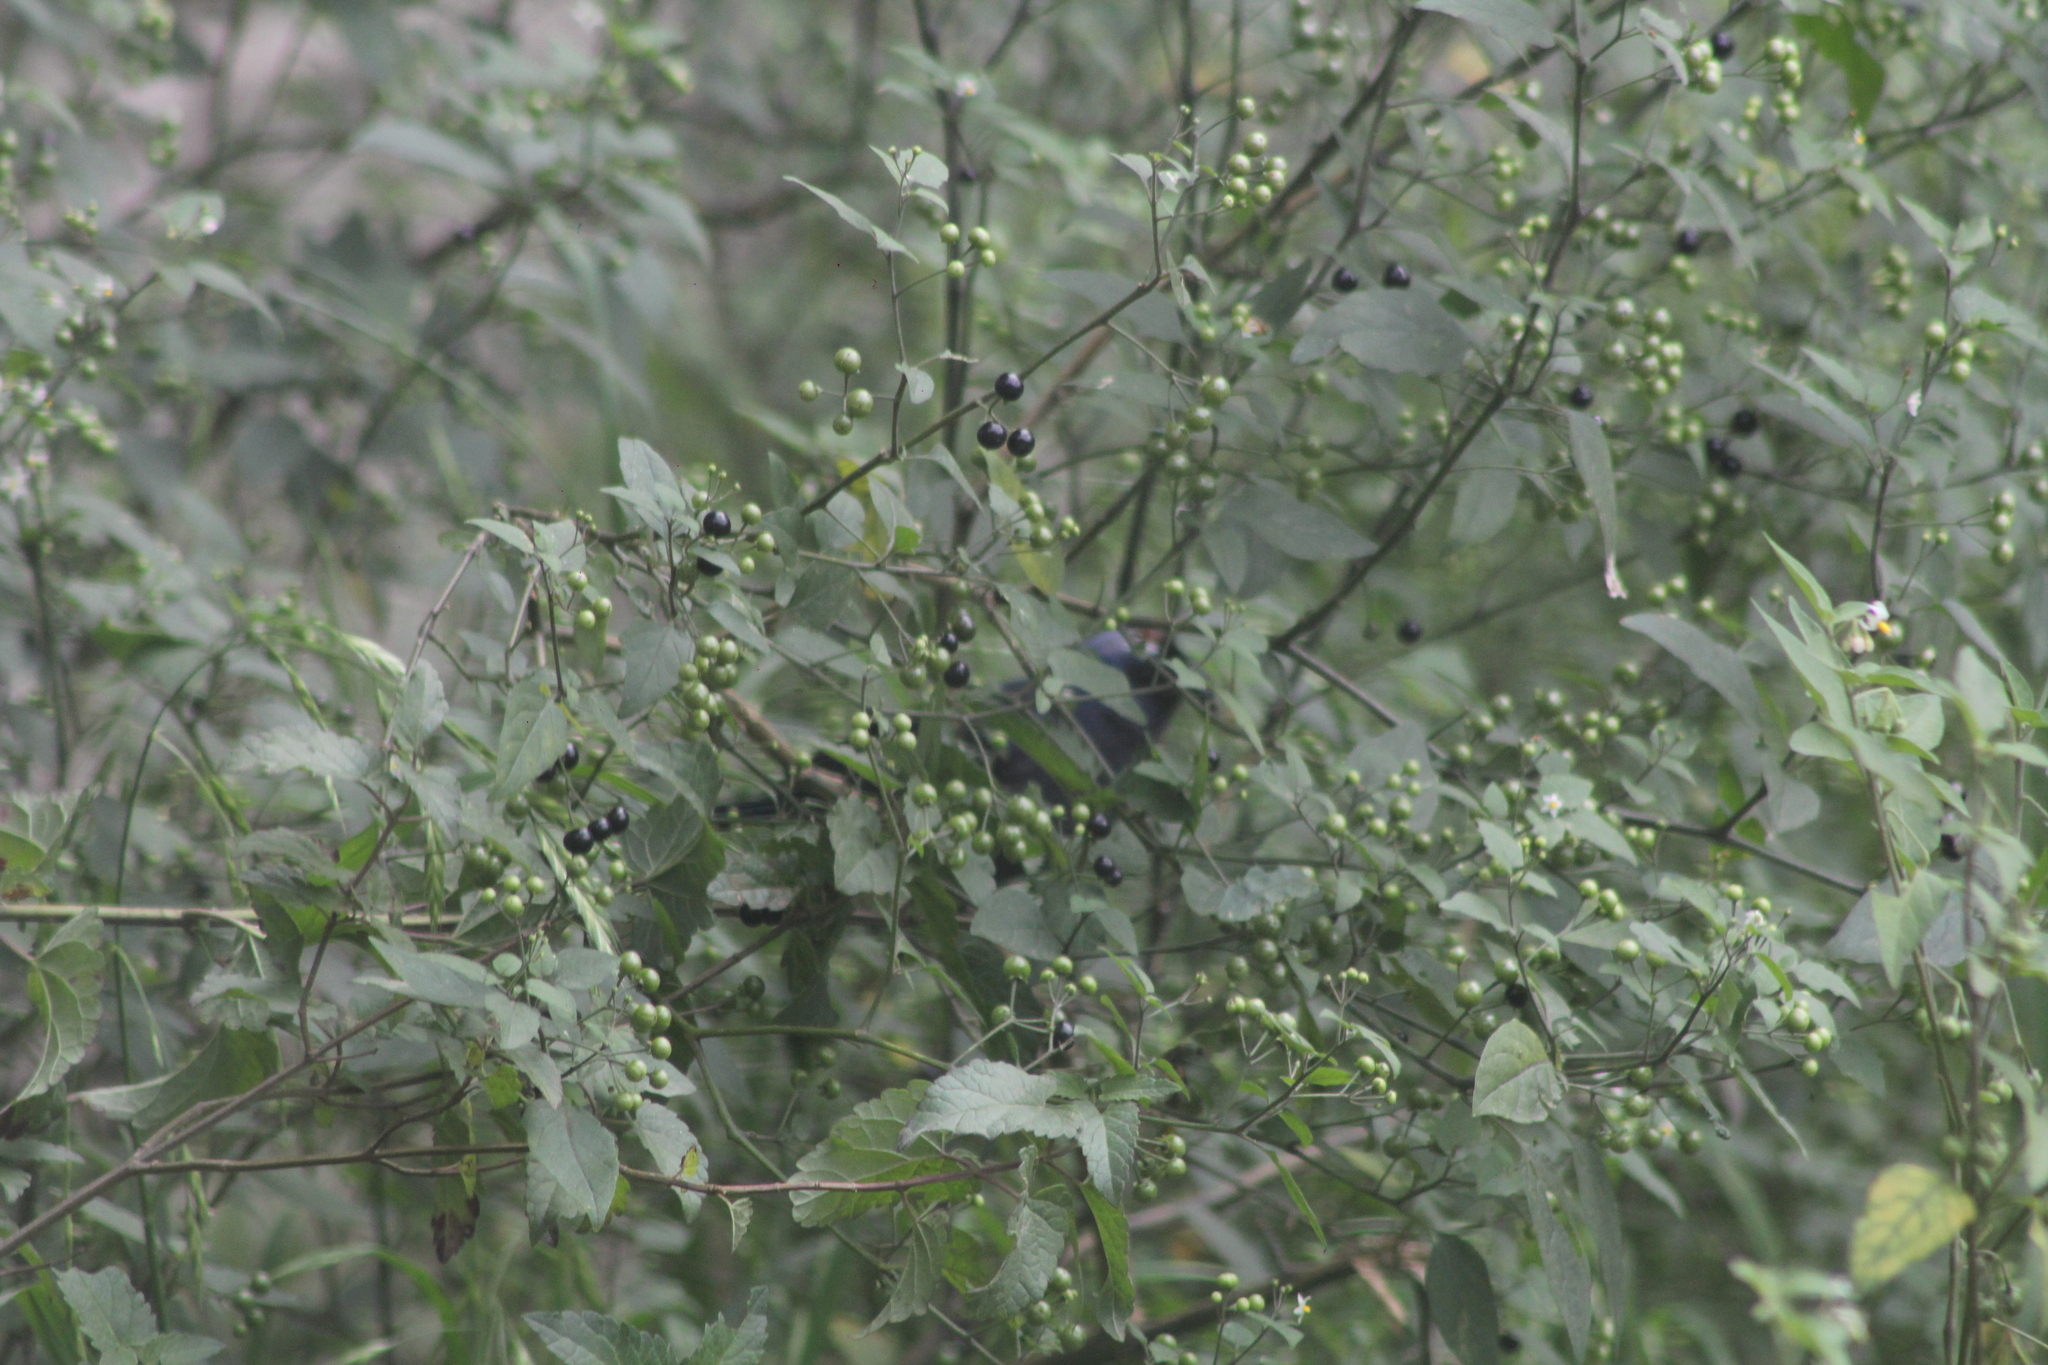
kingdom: Animalia
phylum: Chordata
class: Aves
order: Passeriformes
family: Thraupidae
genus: Stephanophorus
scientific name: Stephanophorus diadematus
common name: Diademed tanager
